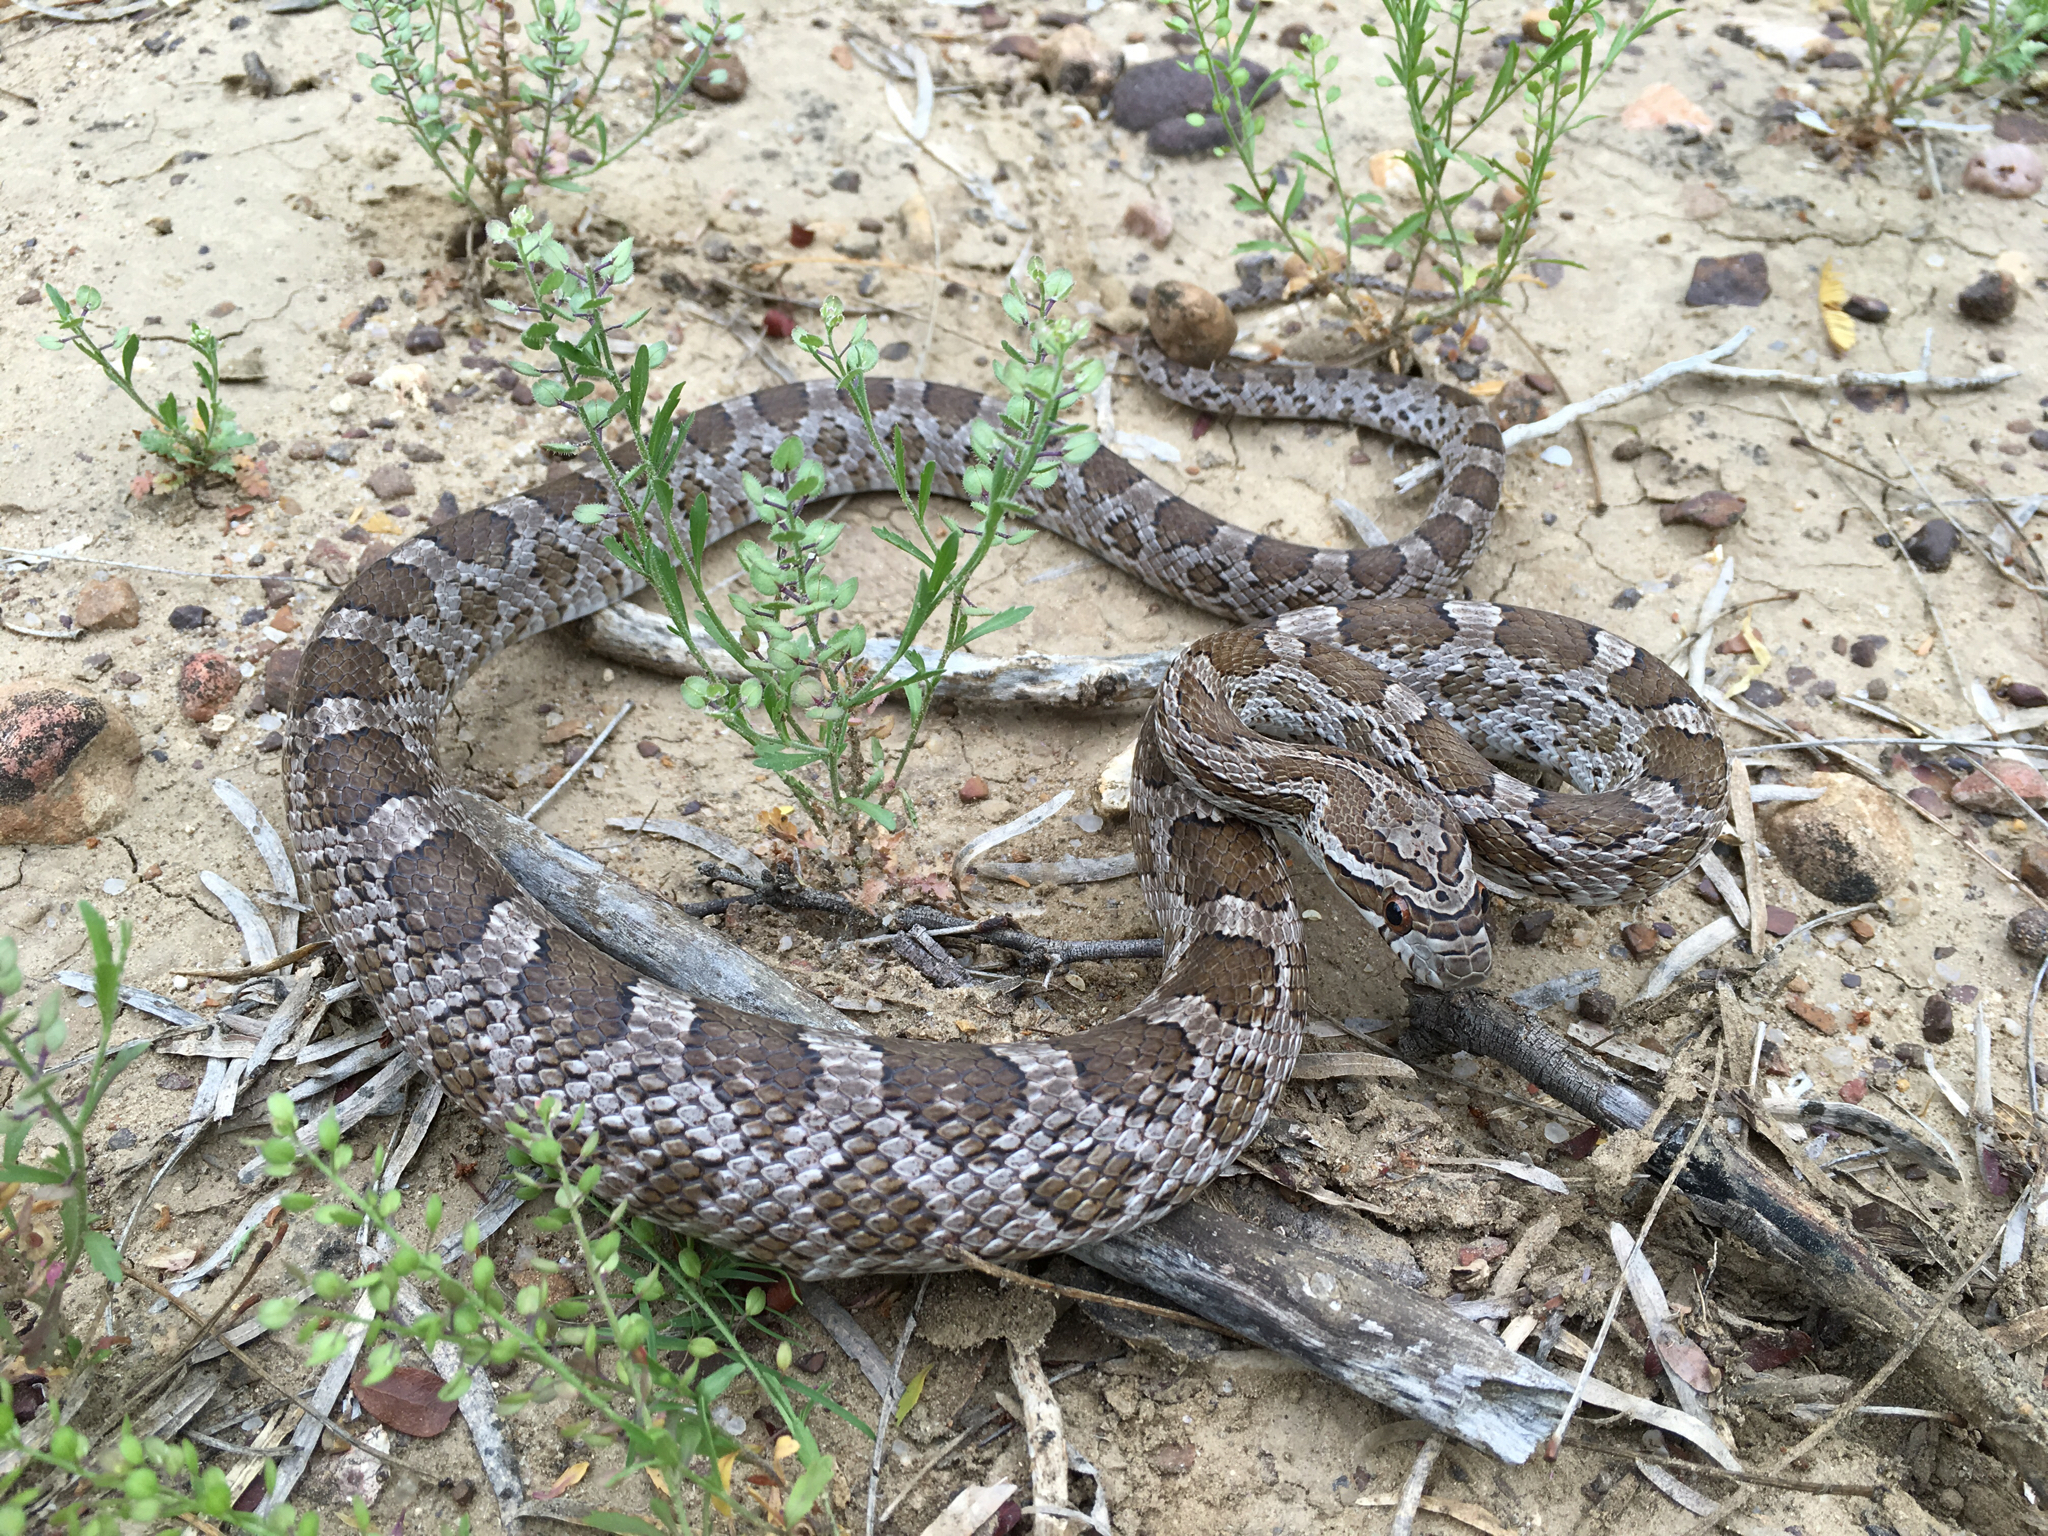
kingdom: Animalia
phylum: Chordata
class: Squamata
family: Colubridae
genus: Pantherophis
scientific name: Pantherophis emoryi
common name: Great plains rat snake
